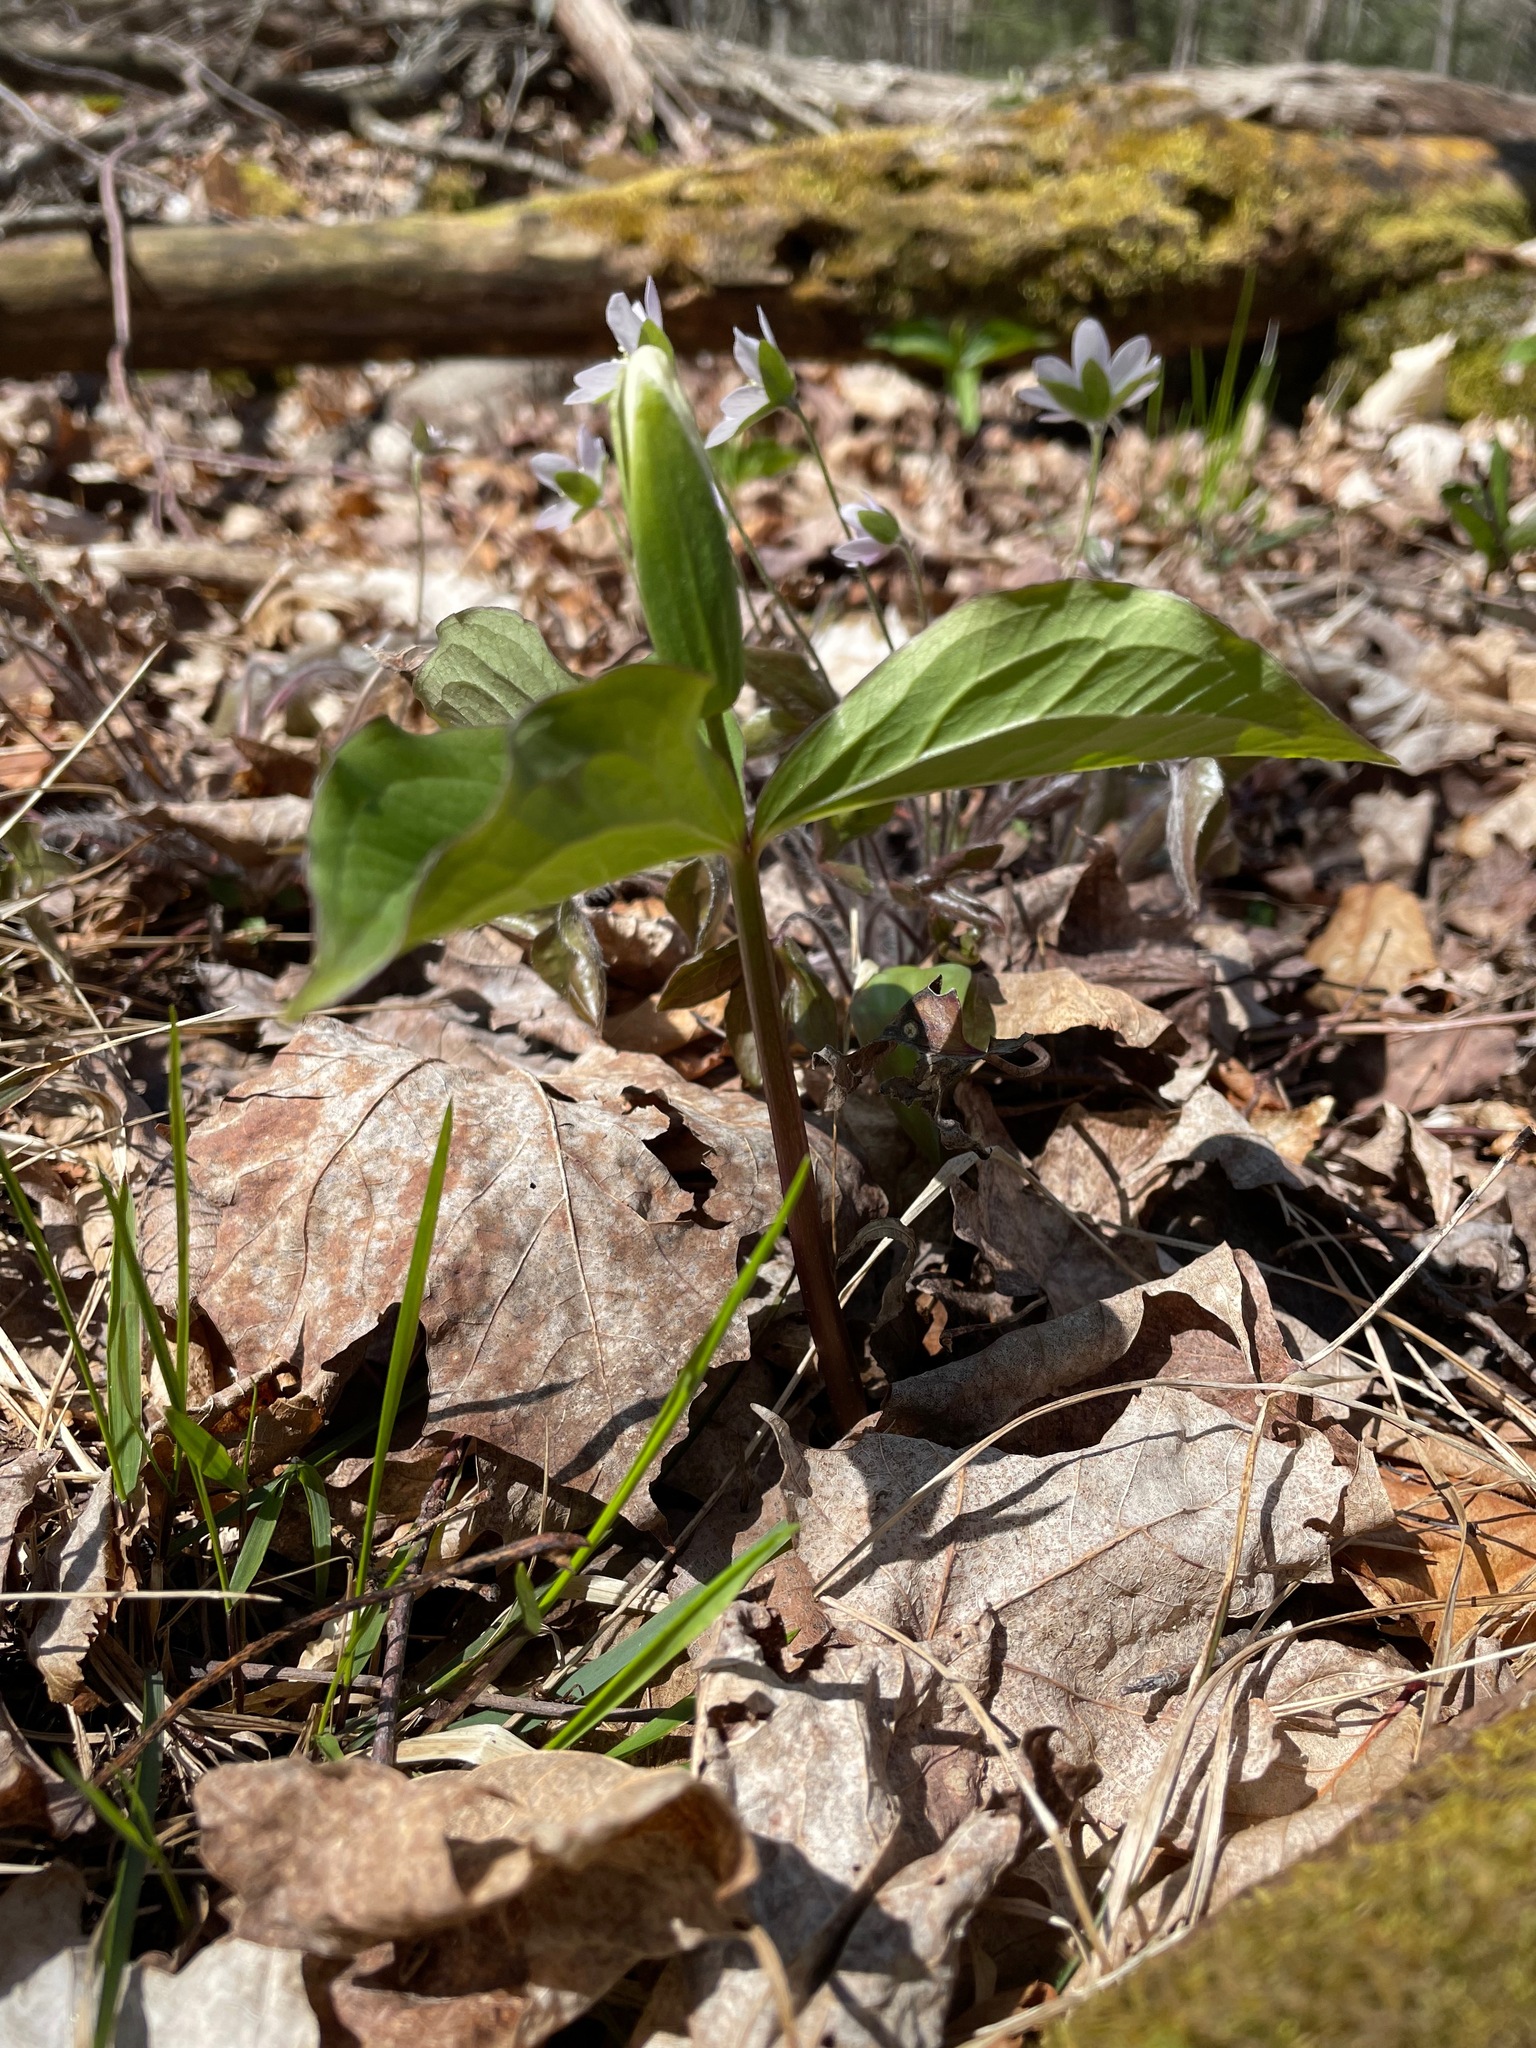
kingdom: Plantae
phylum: Tracheophyta
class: Liliopsida
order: Liliales
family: Melanthiaceae
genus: Trillium
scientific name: Trillium grandiflorum
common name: Great white trillium
